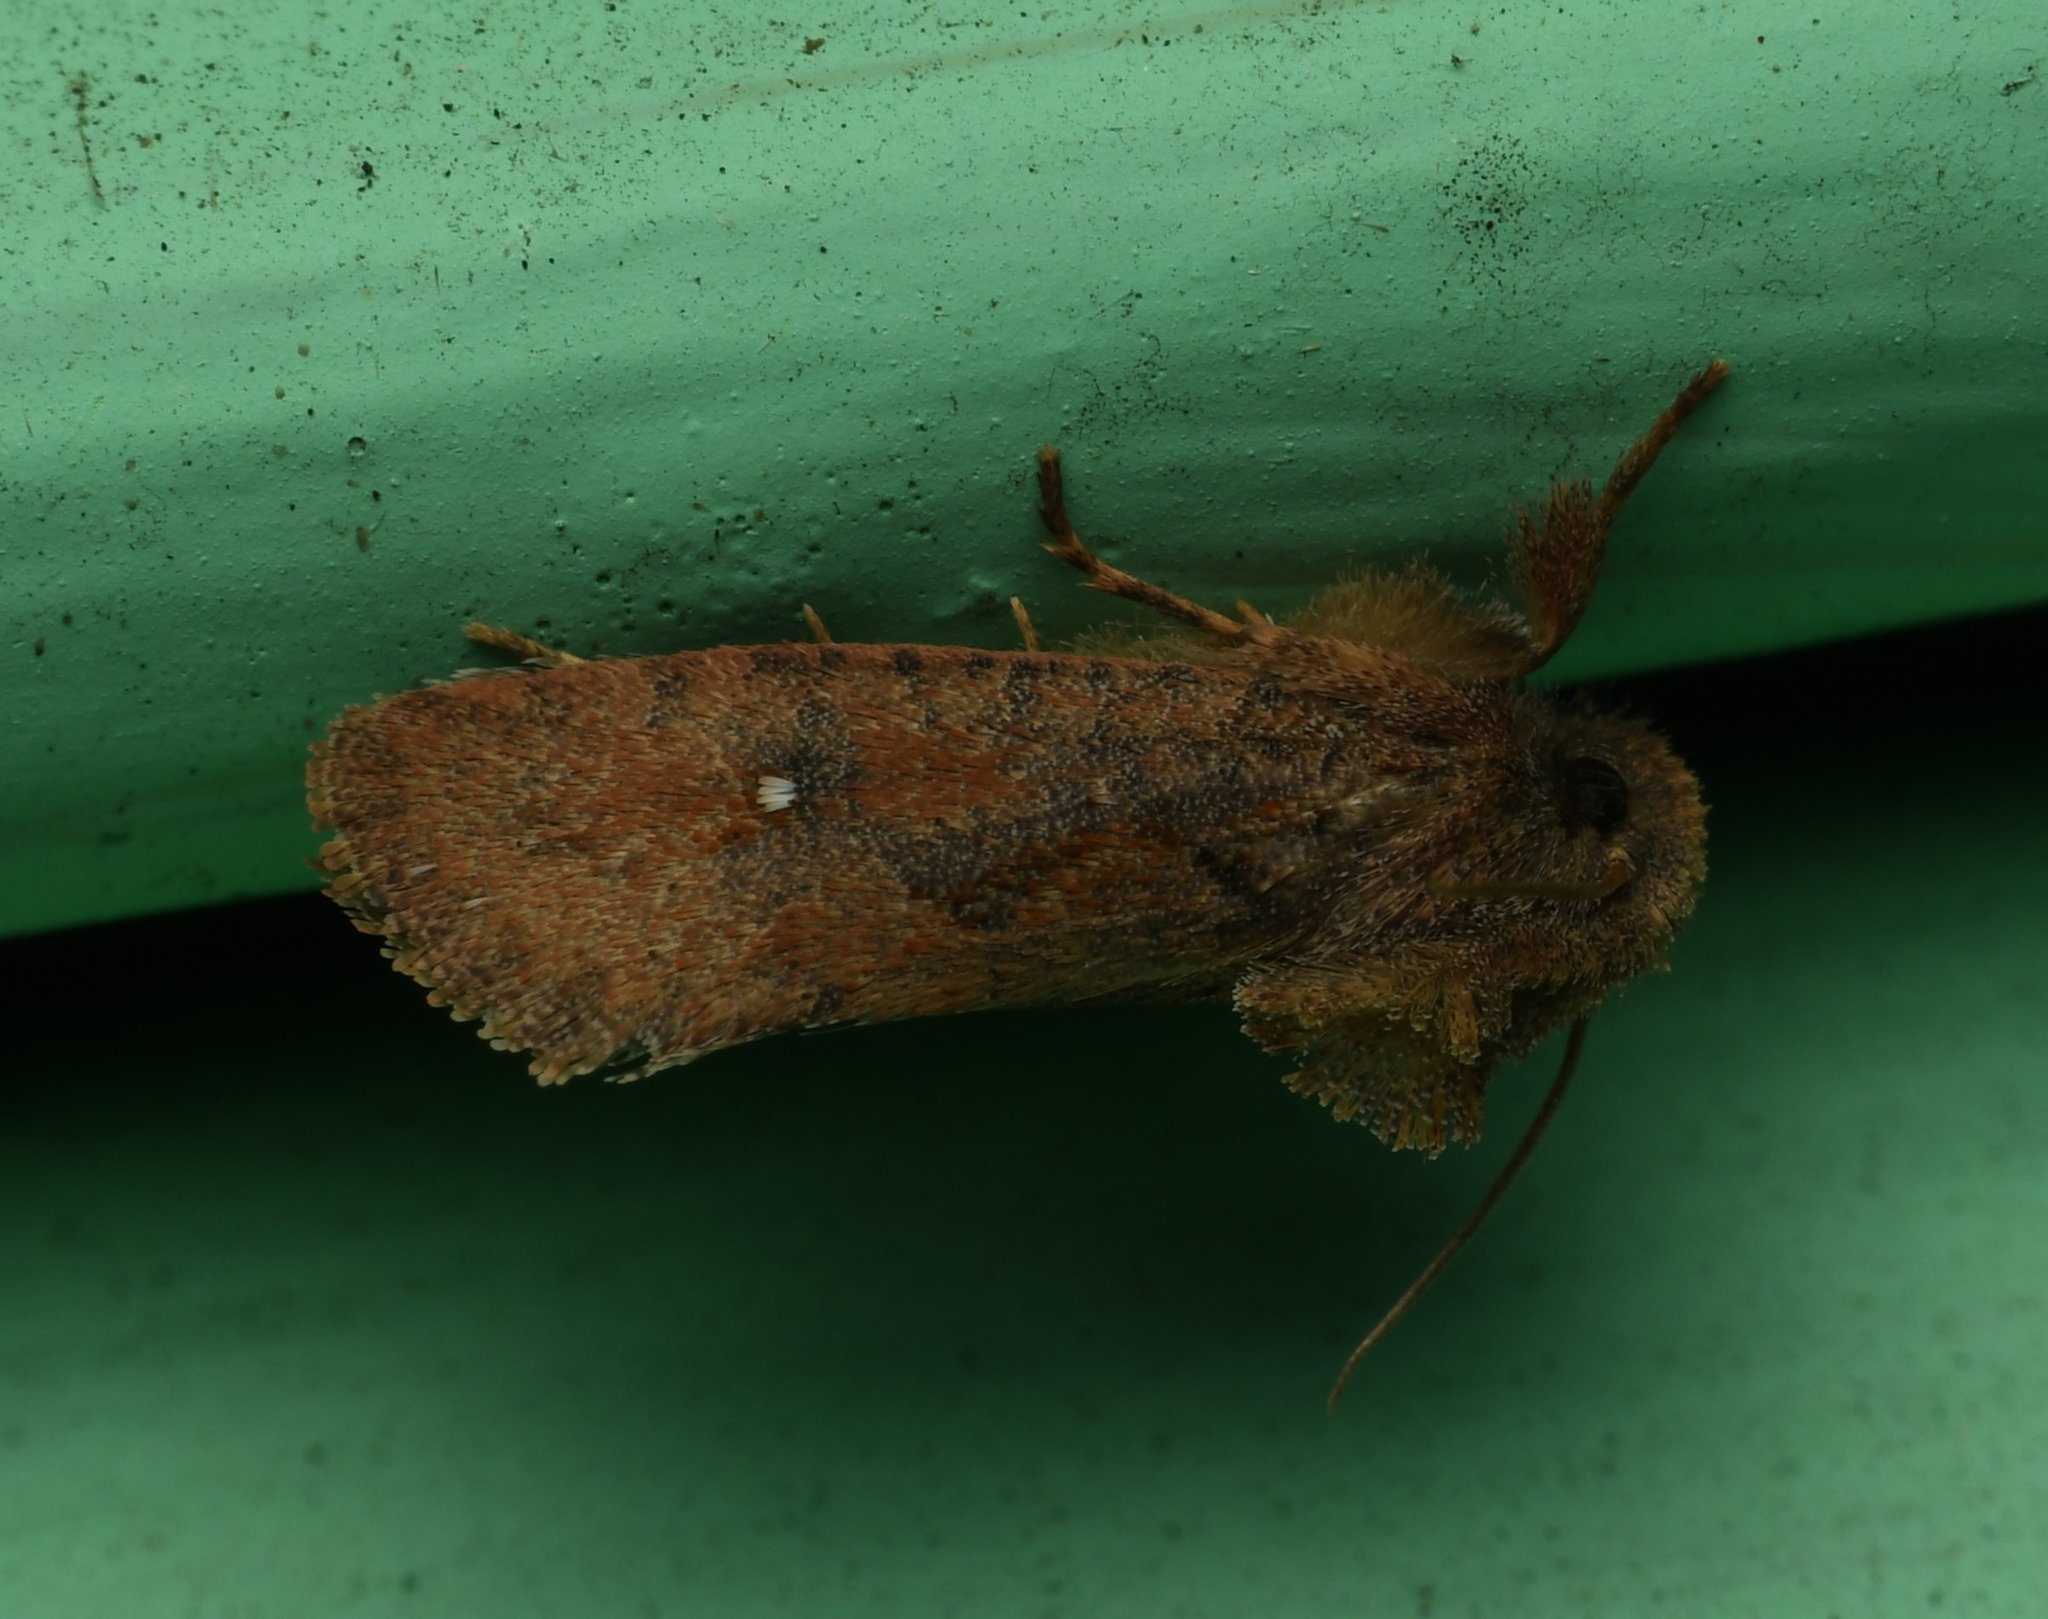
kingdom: Animalia
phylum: Arthropoda
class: Insecta
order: Lepidoptera
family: Tineidae
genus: Acrolophus
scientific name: Acrolophus walsinghami
